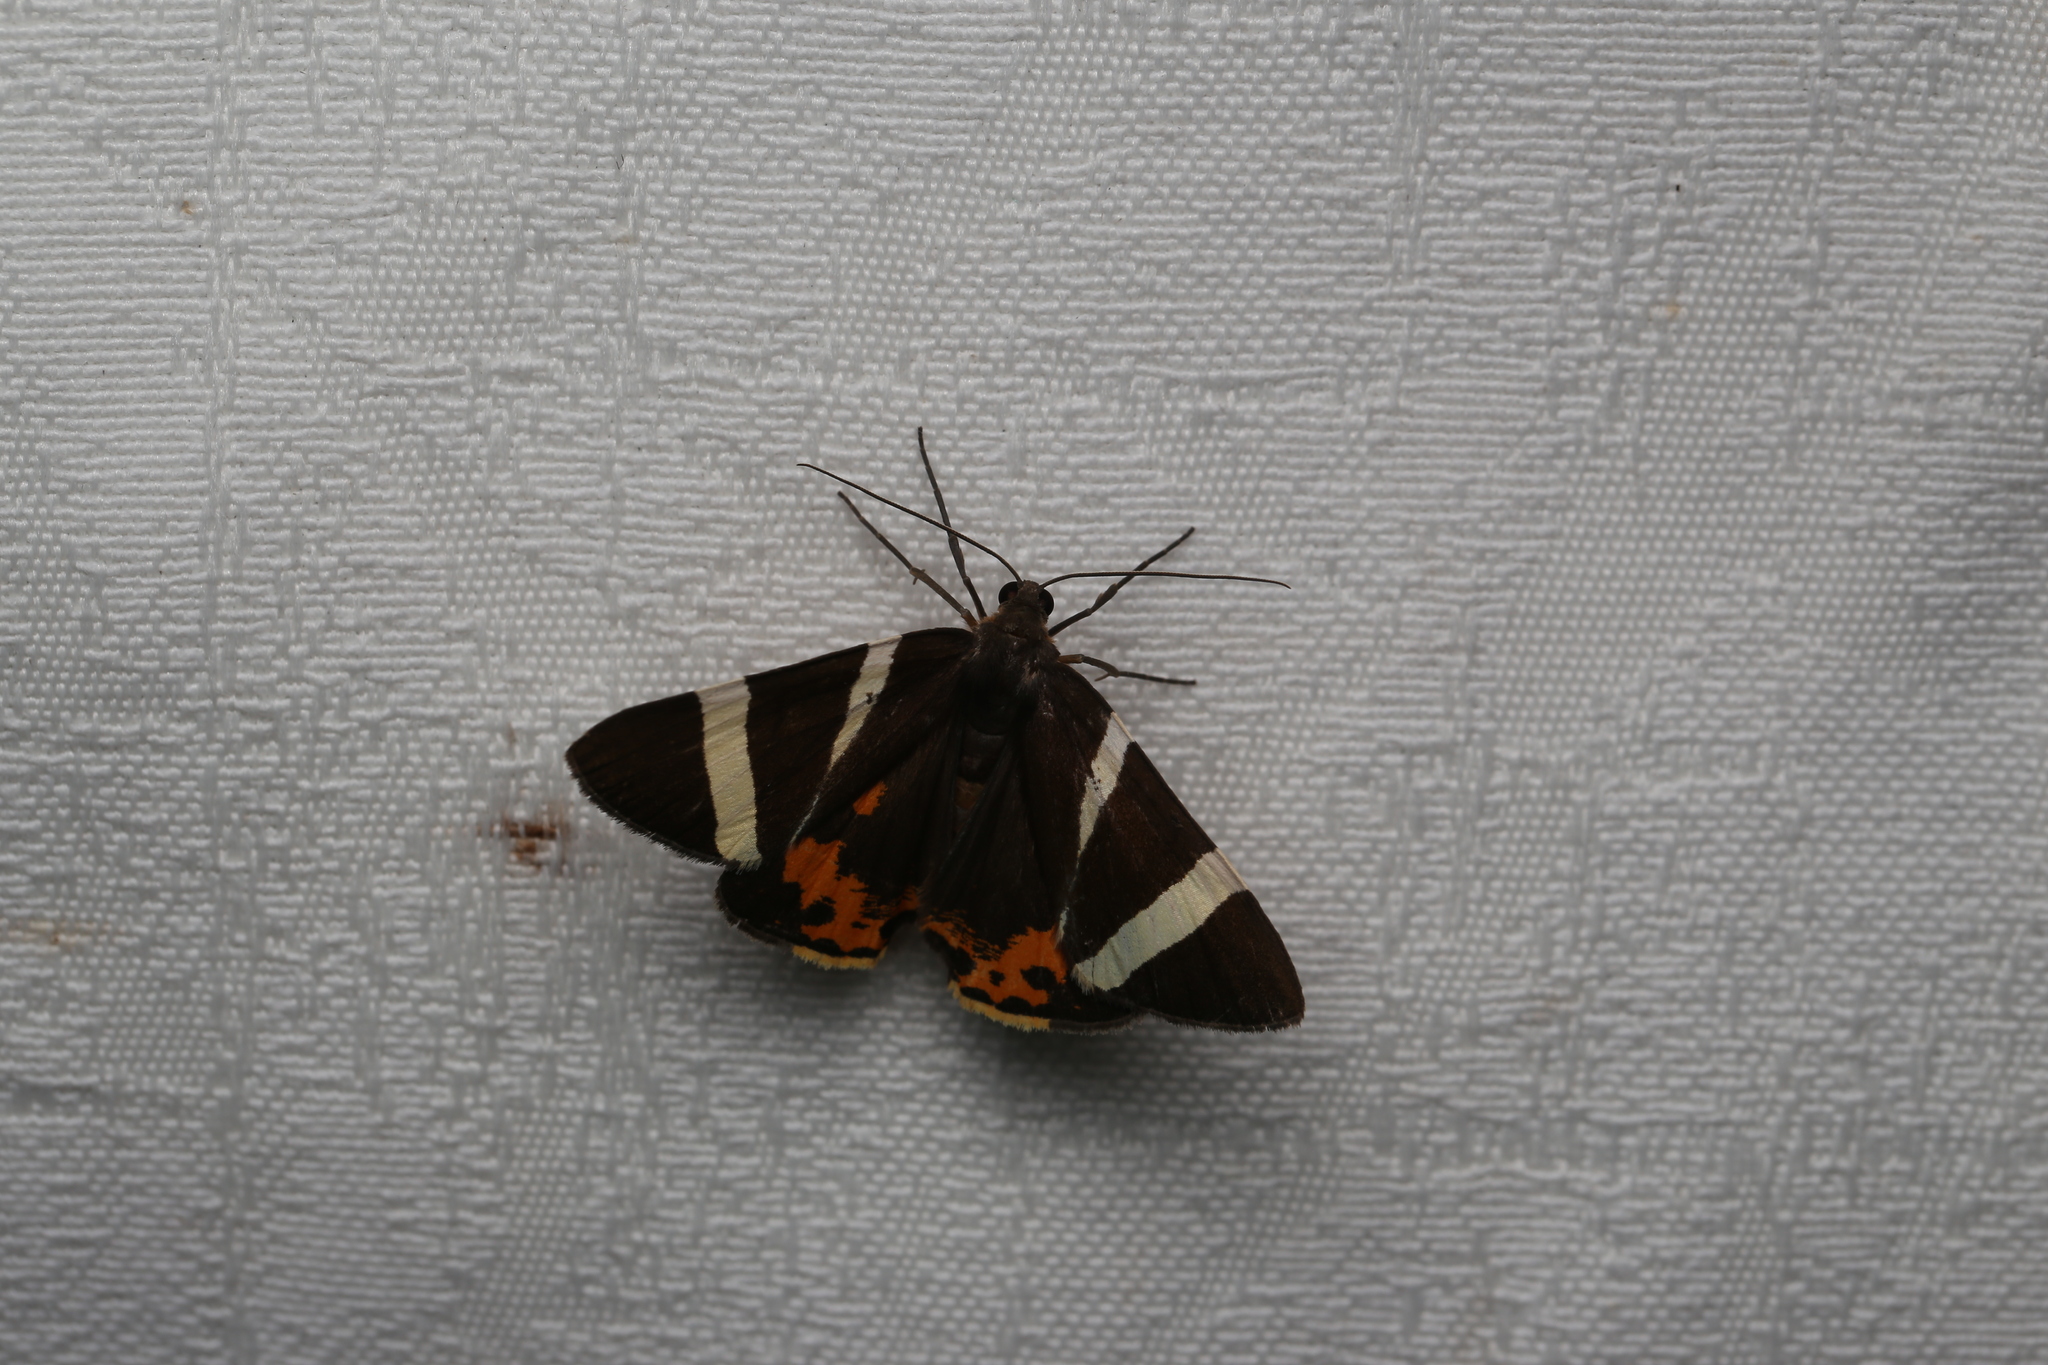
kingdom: Animalia
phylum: Arthropoda
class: Insecta
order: Lepidoptera
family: Geometridae
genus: Lychnographa
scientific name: Lychnographa heroica
